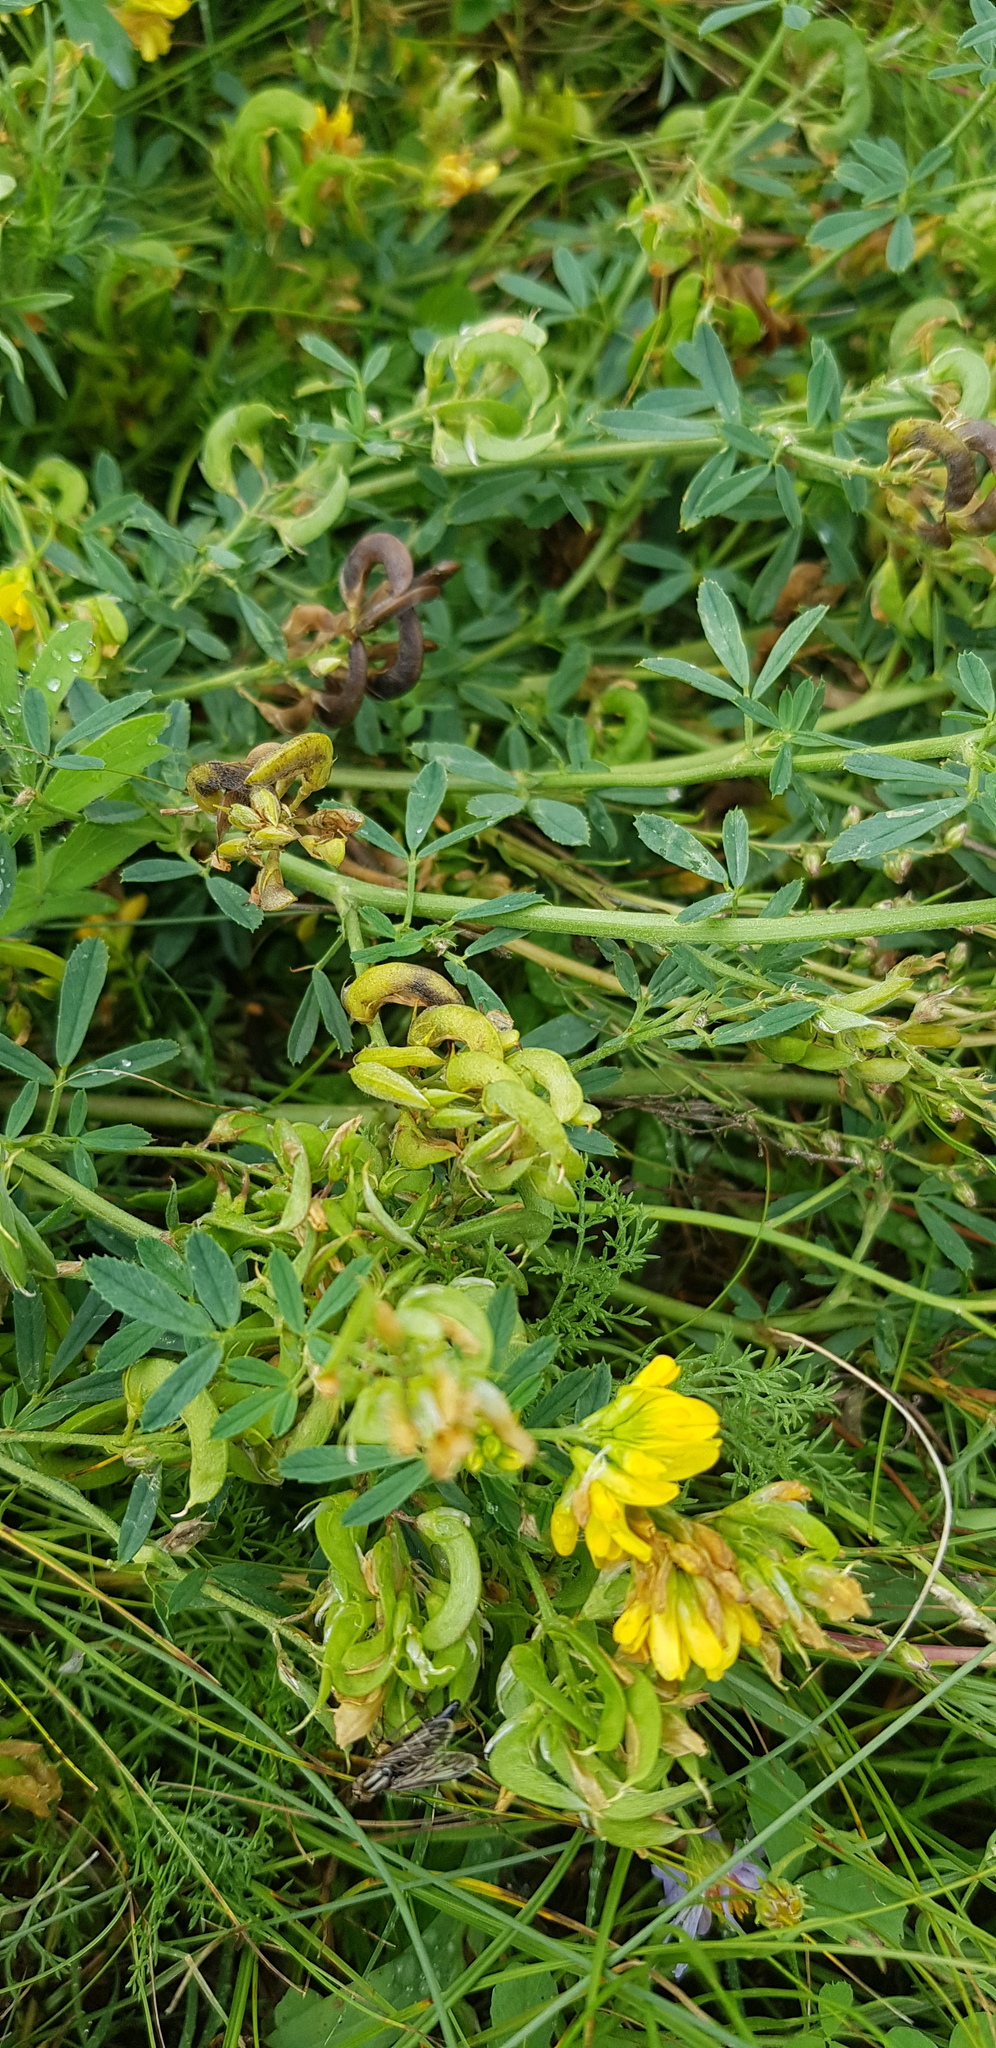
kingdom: Plantae
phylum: Tracheophyta
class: Magnoliopsida
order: Fabales
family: Fabaceae
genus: Medicago
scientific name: Medicago falcata
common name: Sickle medick
